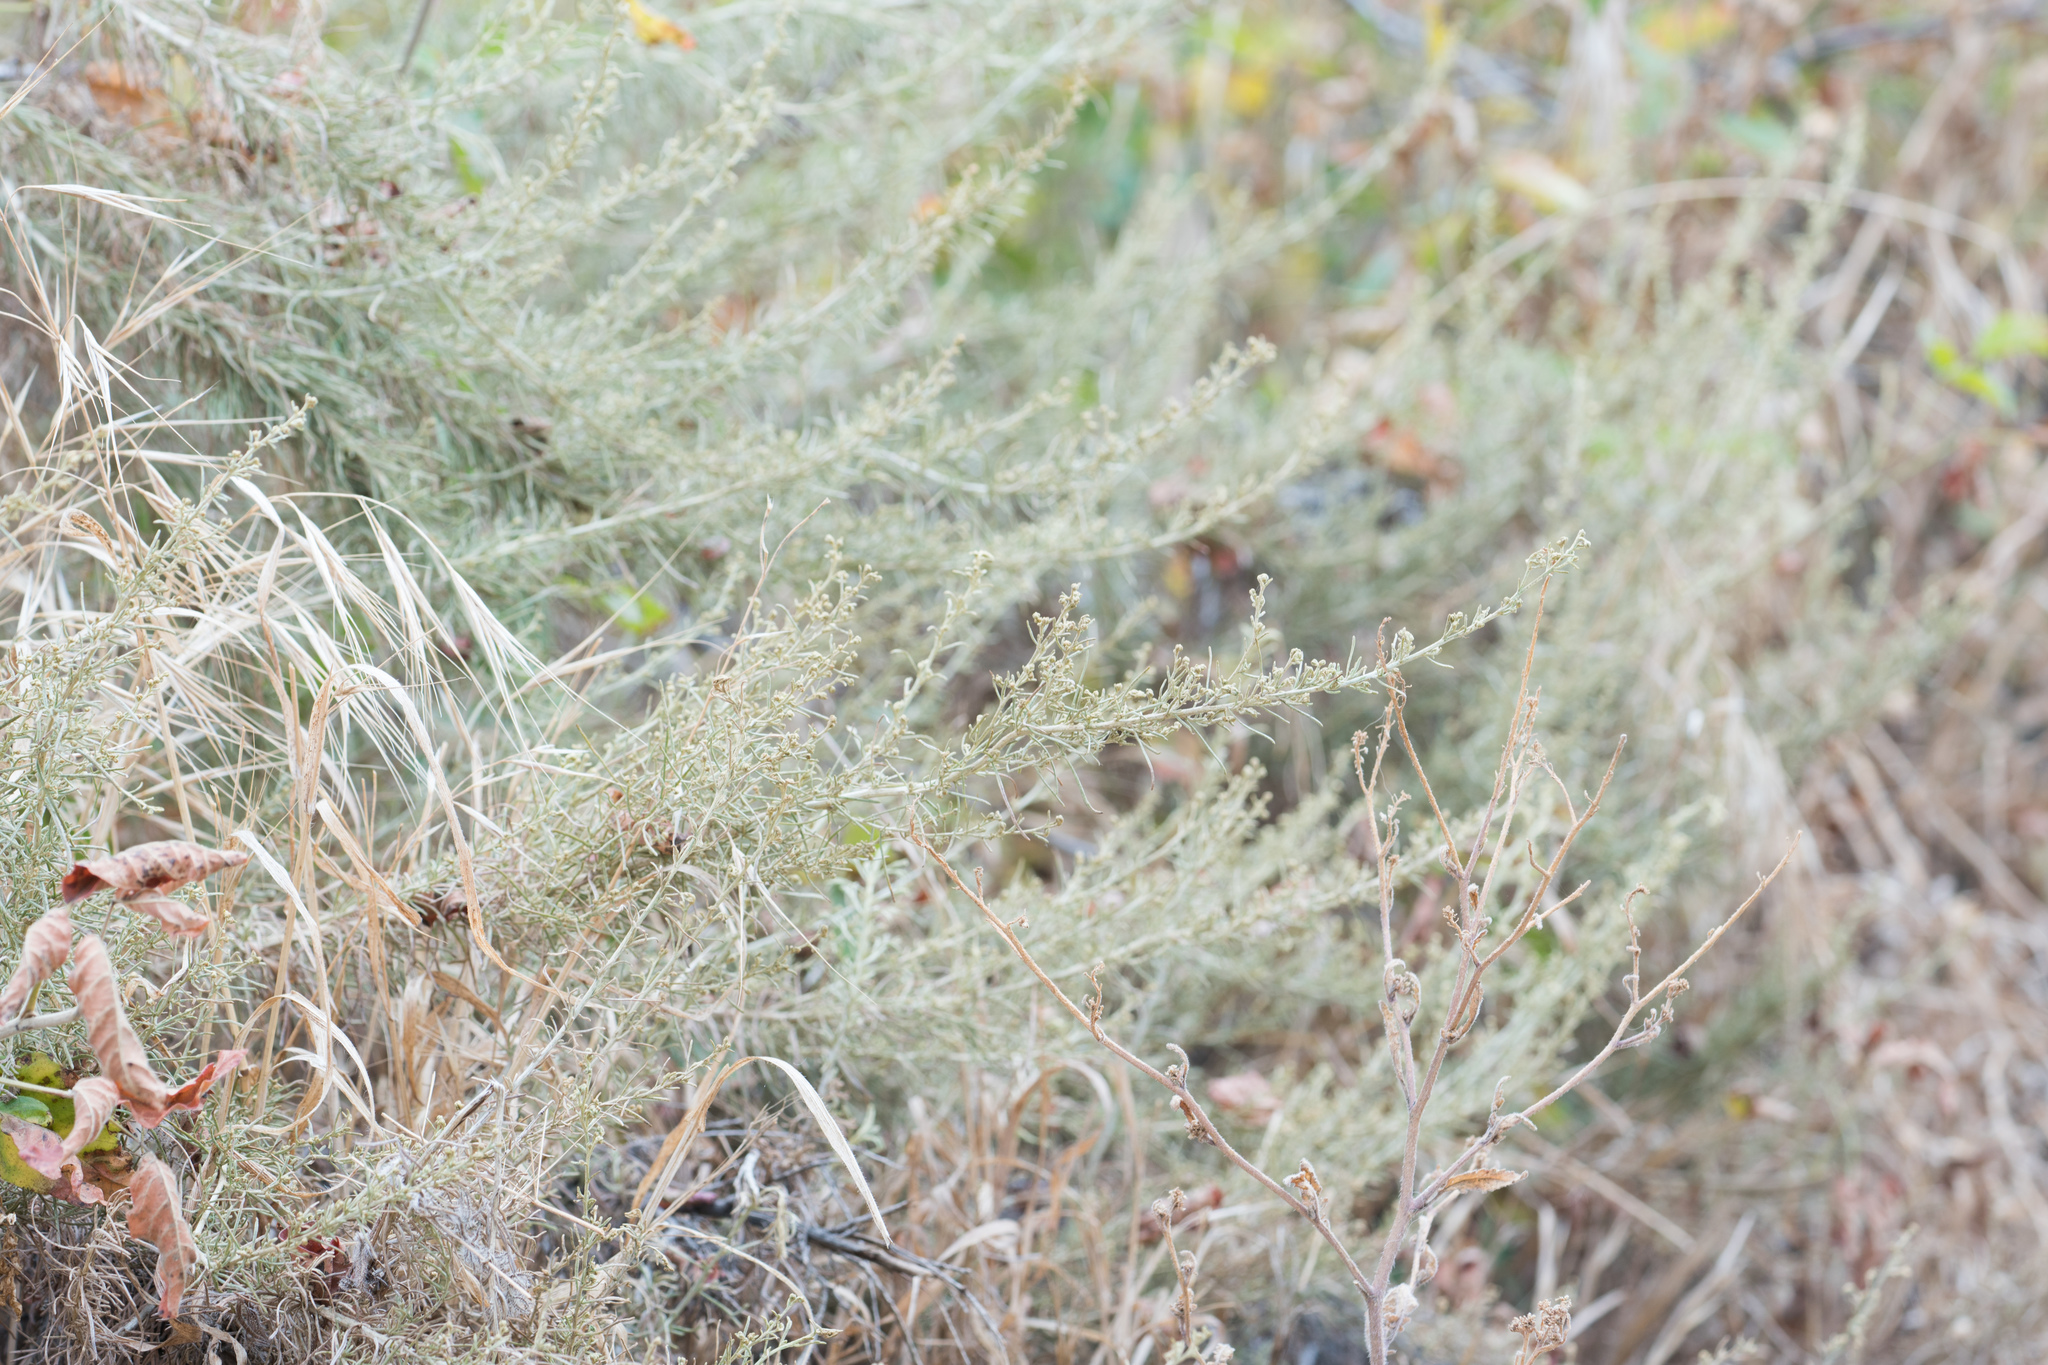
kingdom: Plantae
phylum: Tracheophyta
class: Magnoliopsida
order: Asterales
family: Asteraceae
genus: Artemisia
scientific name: Artemisia californica
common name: California sagebrush
